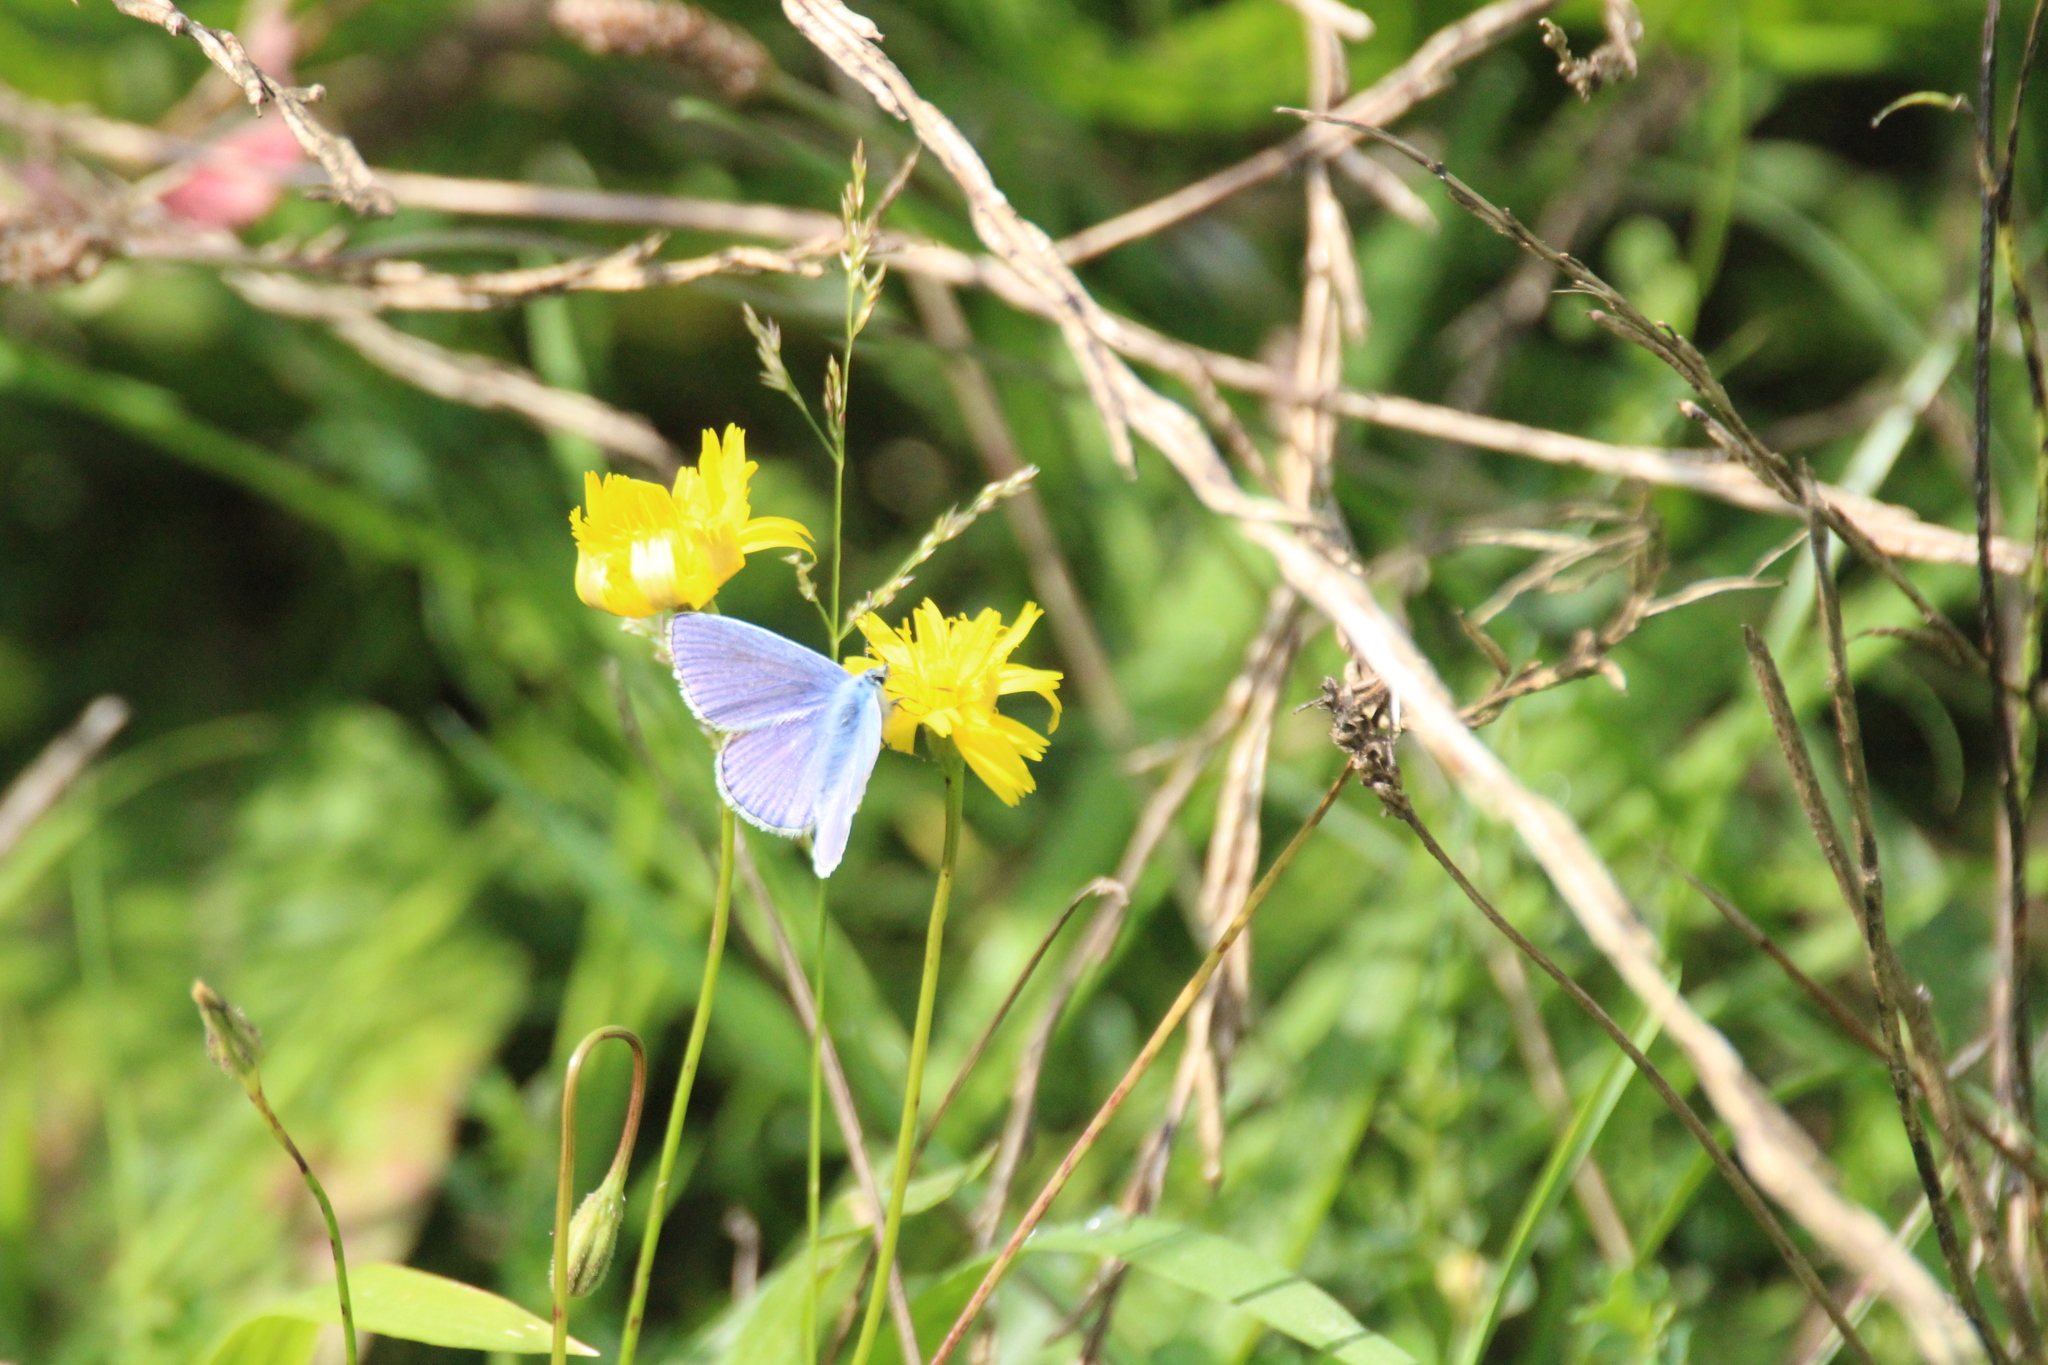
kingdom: Animalia
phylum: Arthropoda
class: Insecta
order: Lepidoptera
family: Lycaenidae
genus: Polyommatus
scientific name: Polyommatus icarus
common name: Common blue
